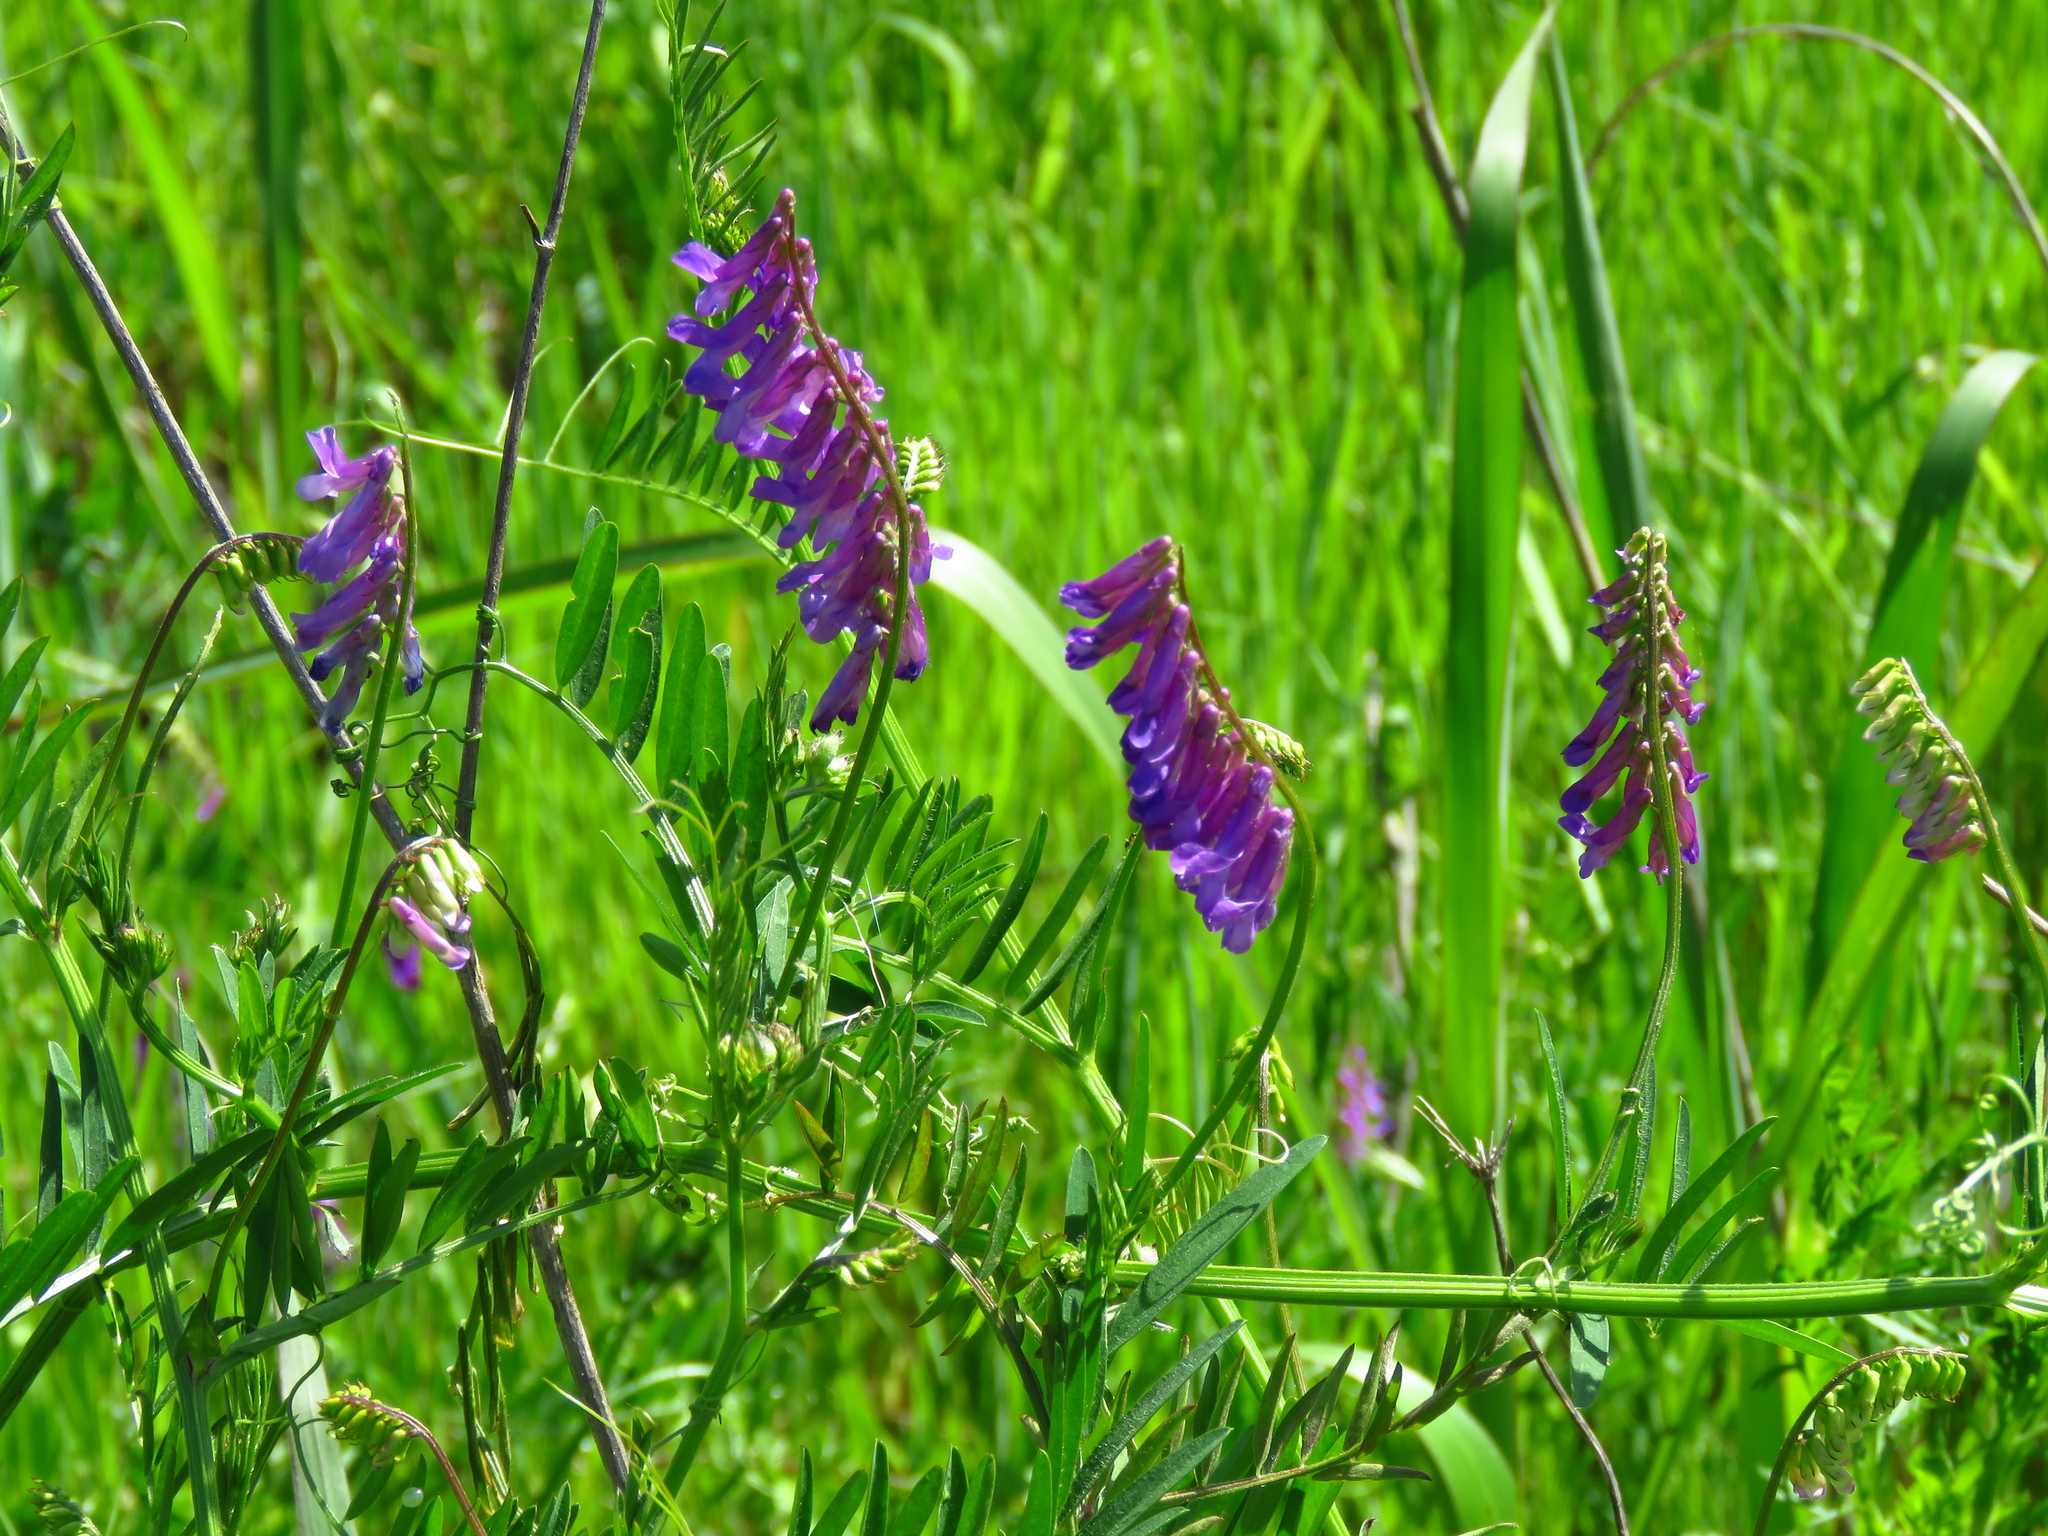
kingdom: Plantae
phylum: Tracheophyta
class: Magnoliopsida
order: Fabales
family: Fabaceae
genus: Vicia
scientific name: Vicia villosa
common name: Fodder vetch
